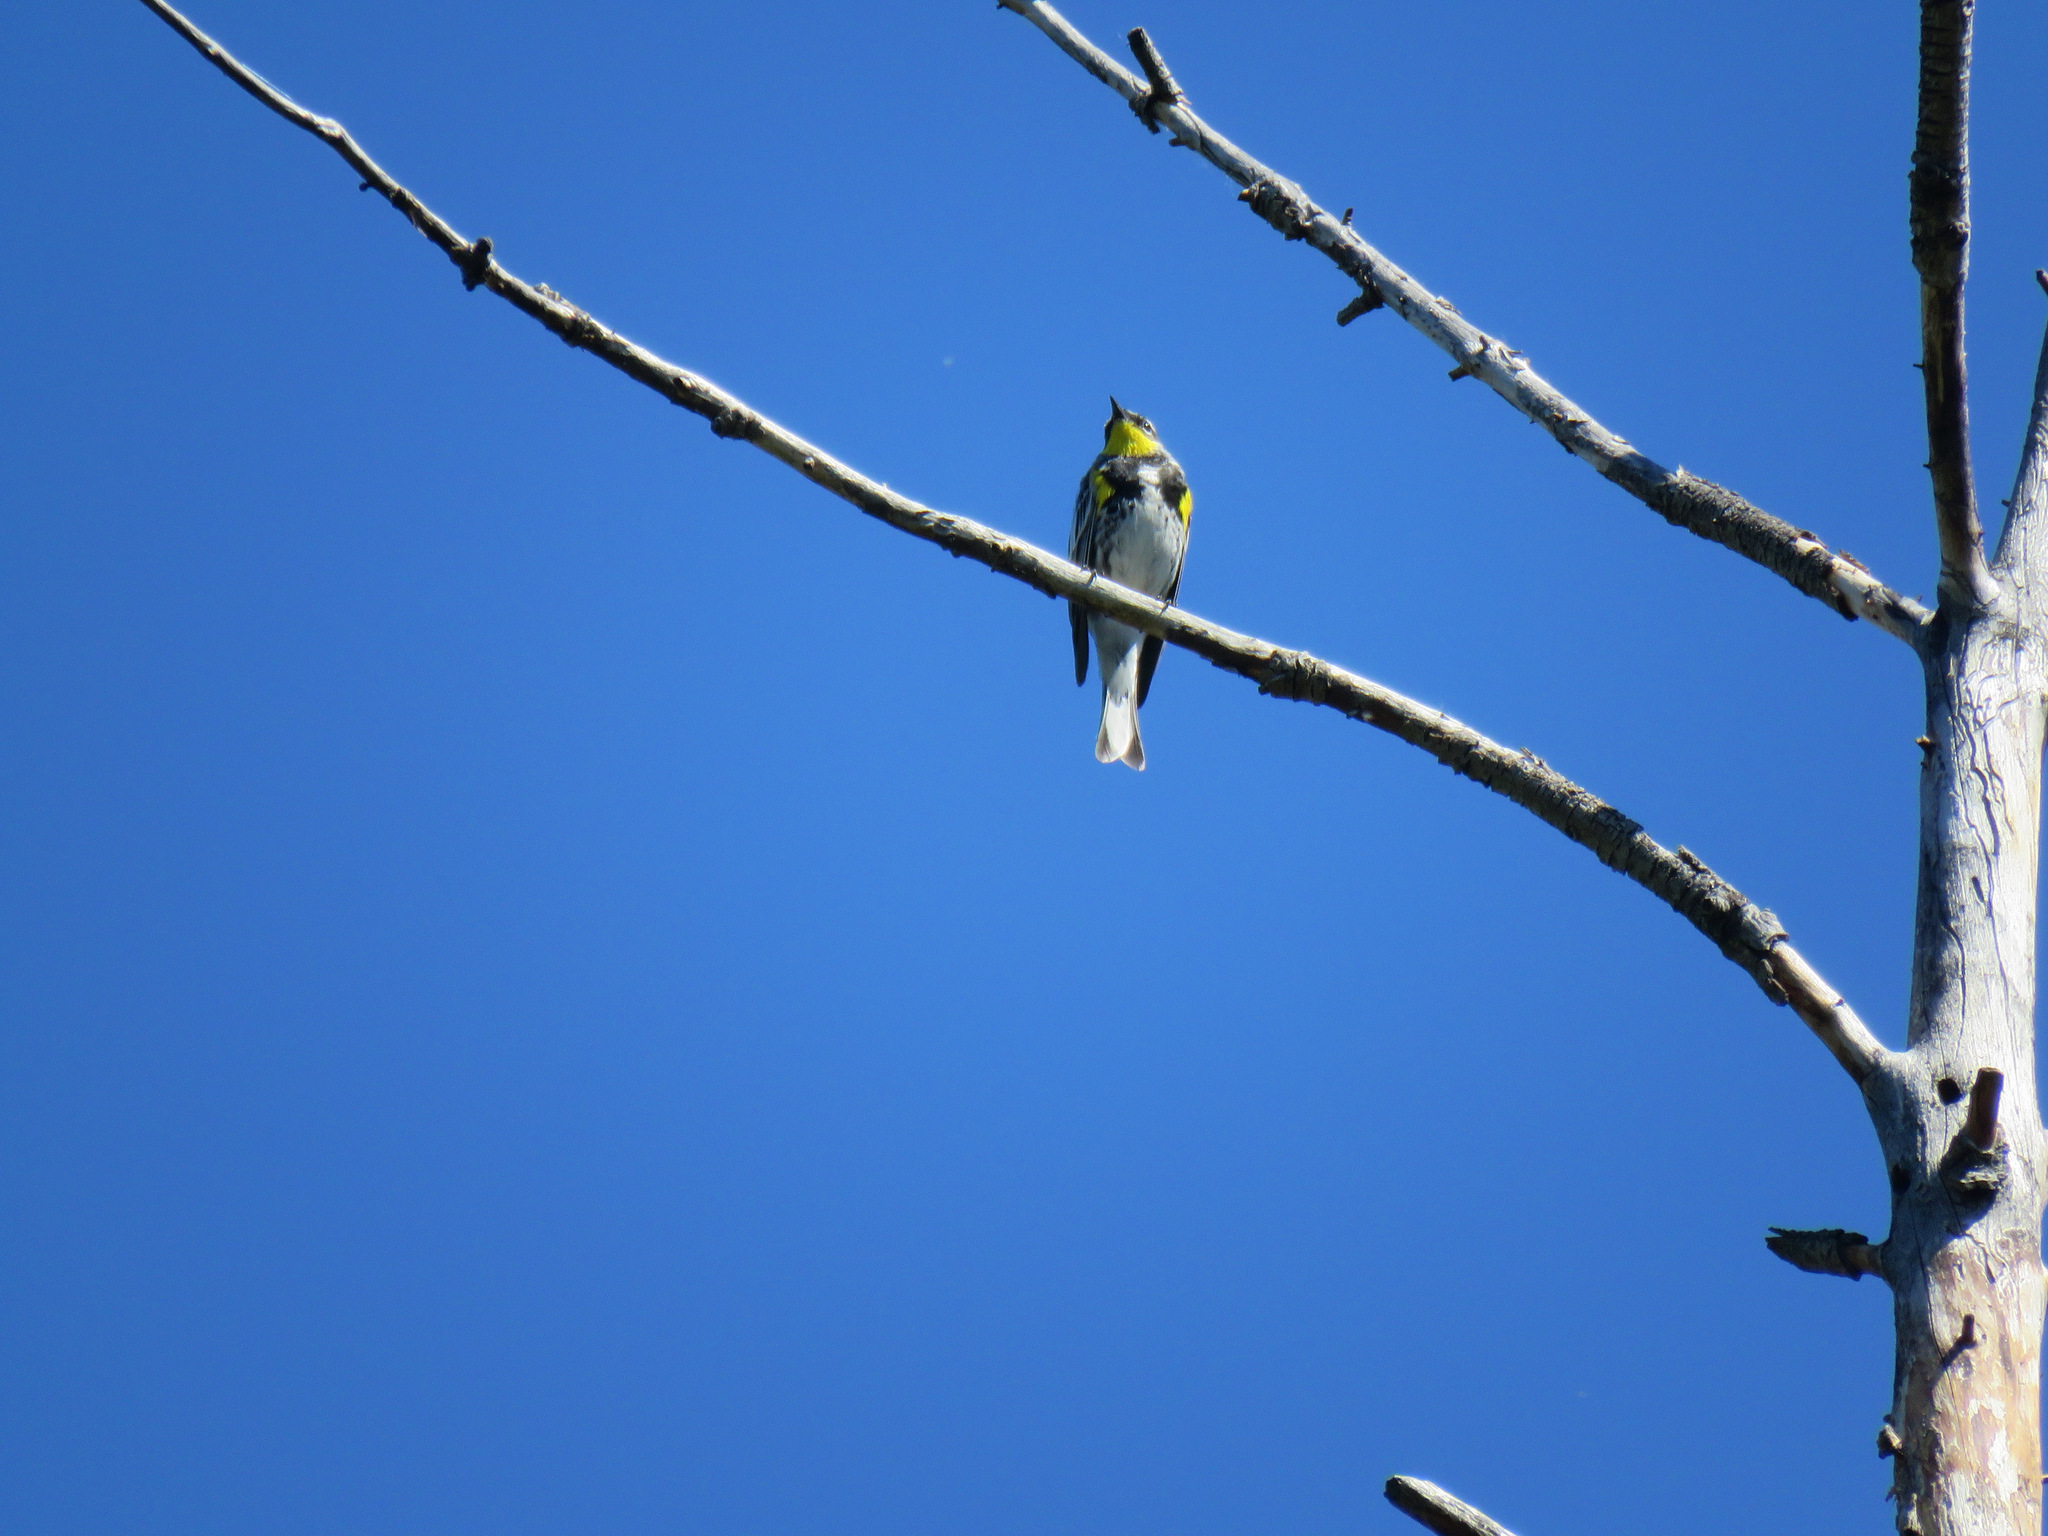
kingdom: Animalia
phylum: Chordata
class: Aves
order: Passeriformes
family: Parulidae
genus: Setophaga
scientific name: Setophaga coronata
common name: Myrtle warbler
